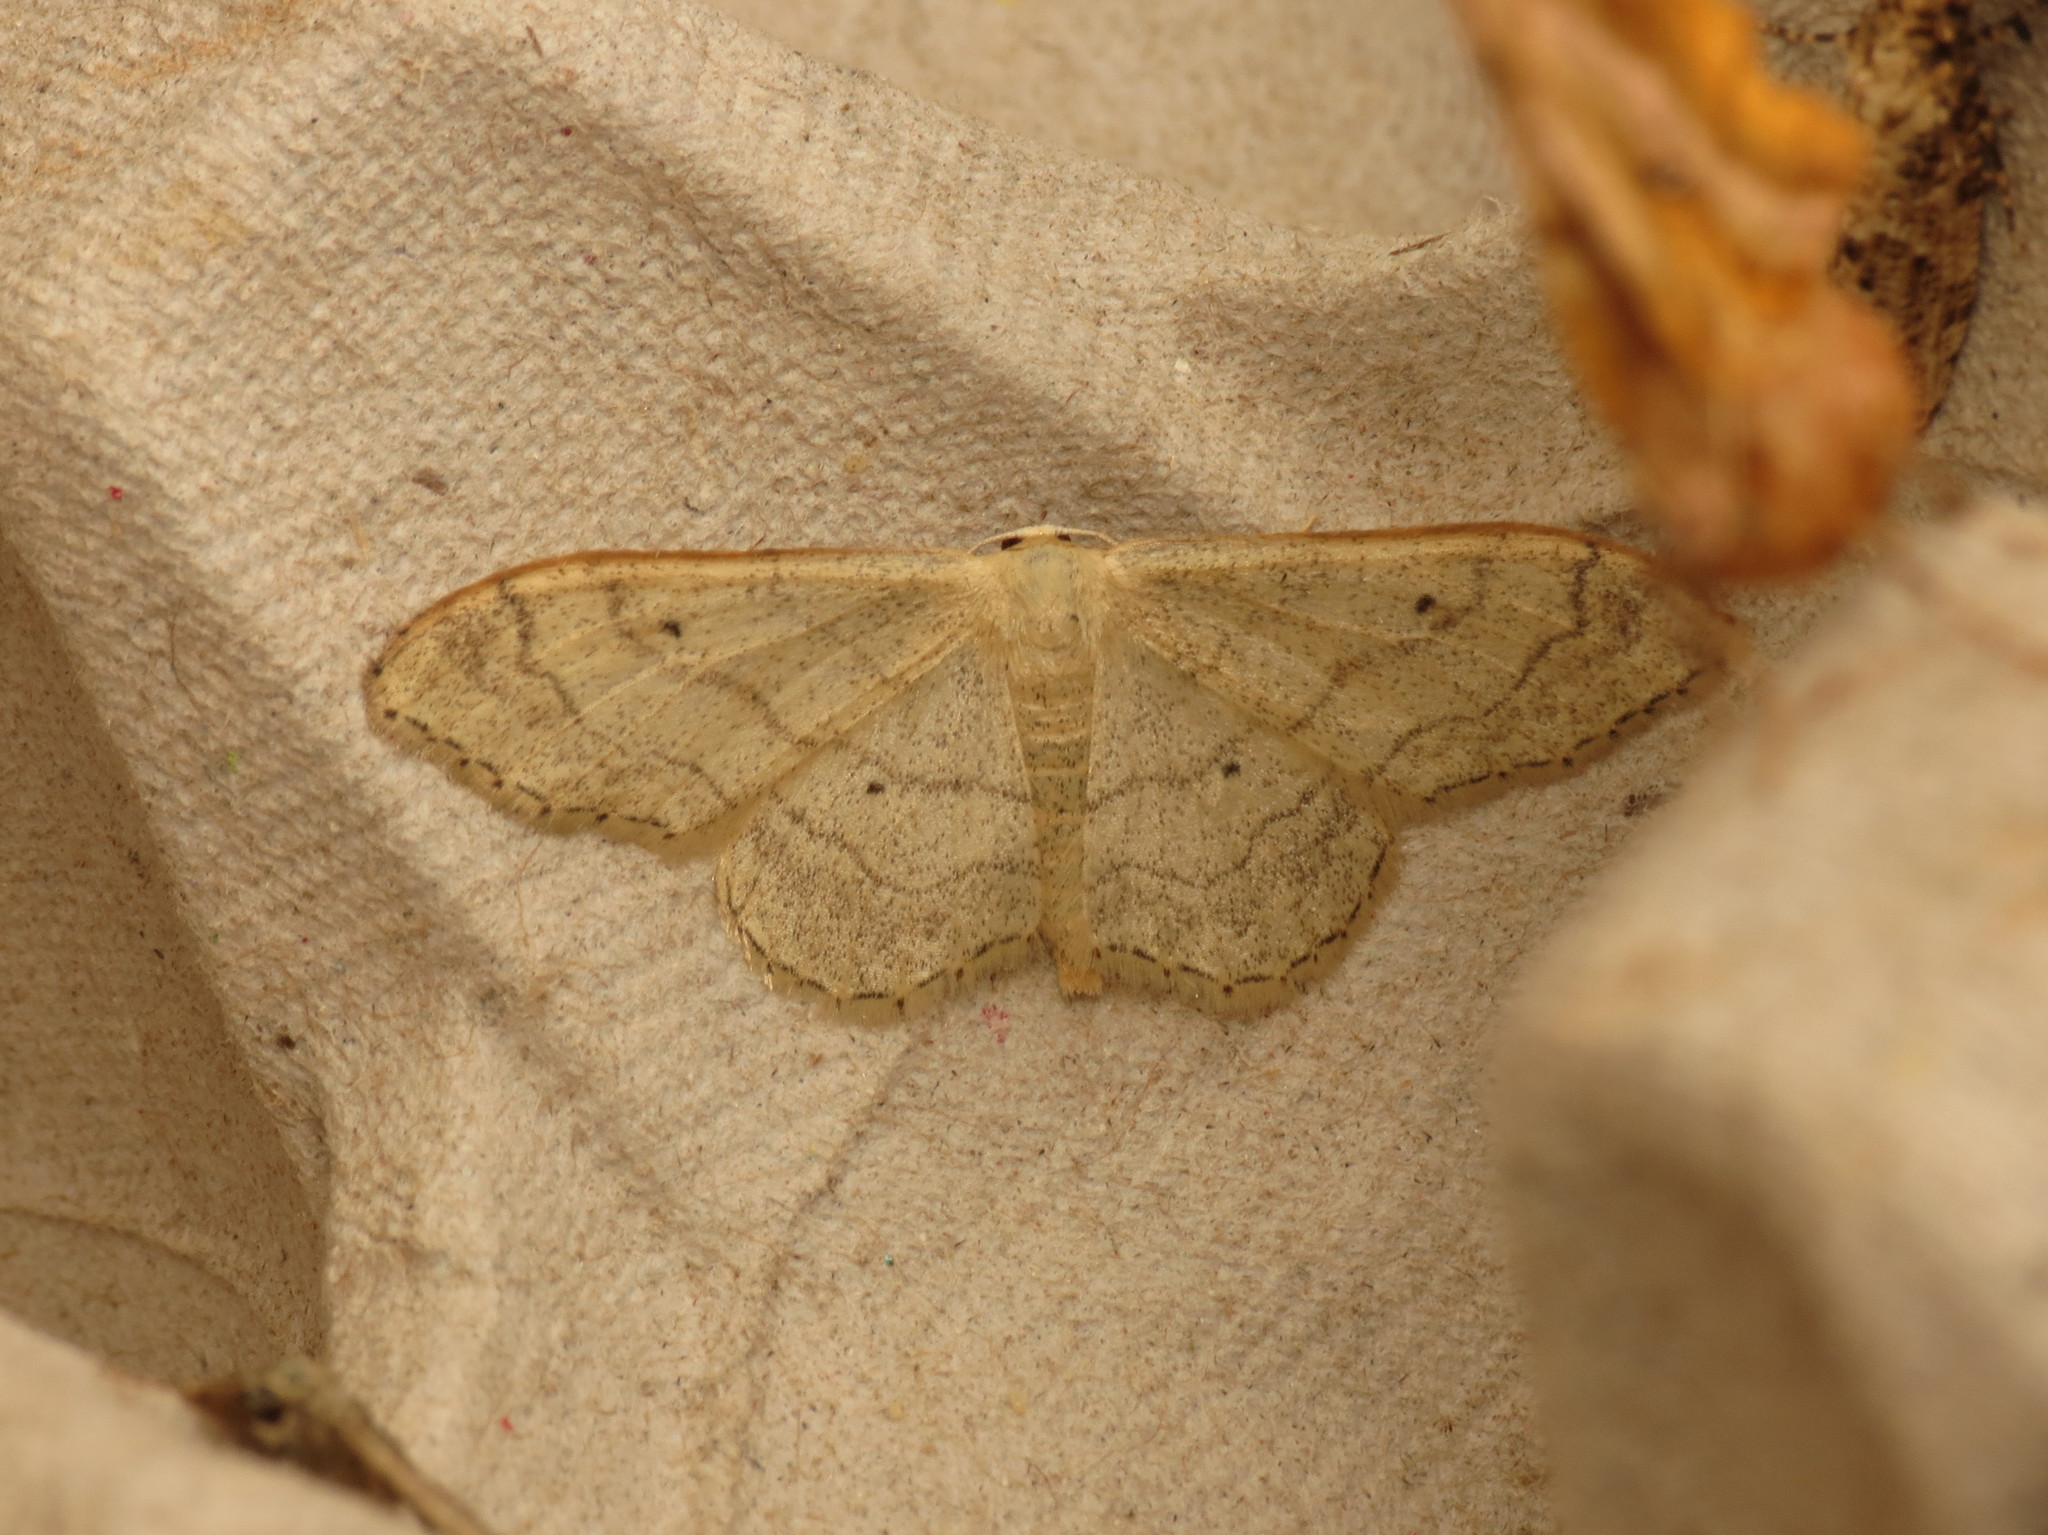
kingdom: Animalia
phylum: Arthropoda
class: Insecta
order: Lepidoptera
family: Geometridae
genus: Idaea
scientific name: Idaea aversata
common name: Riband wave
